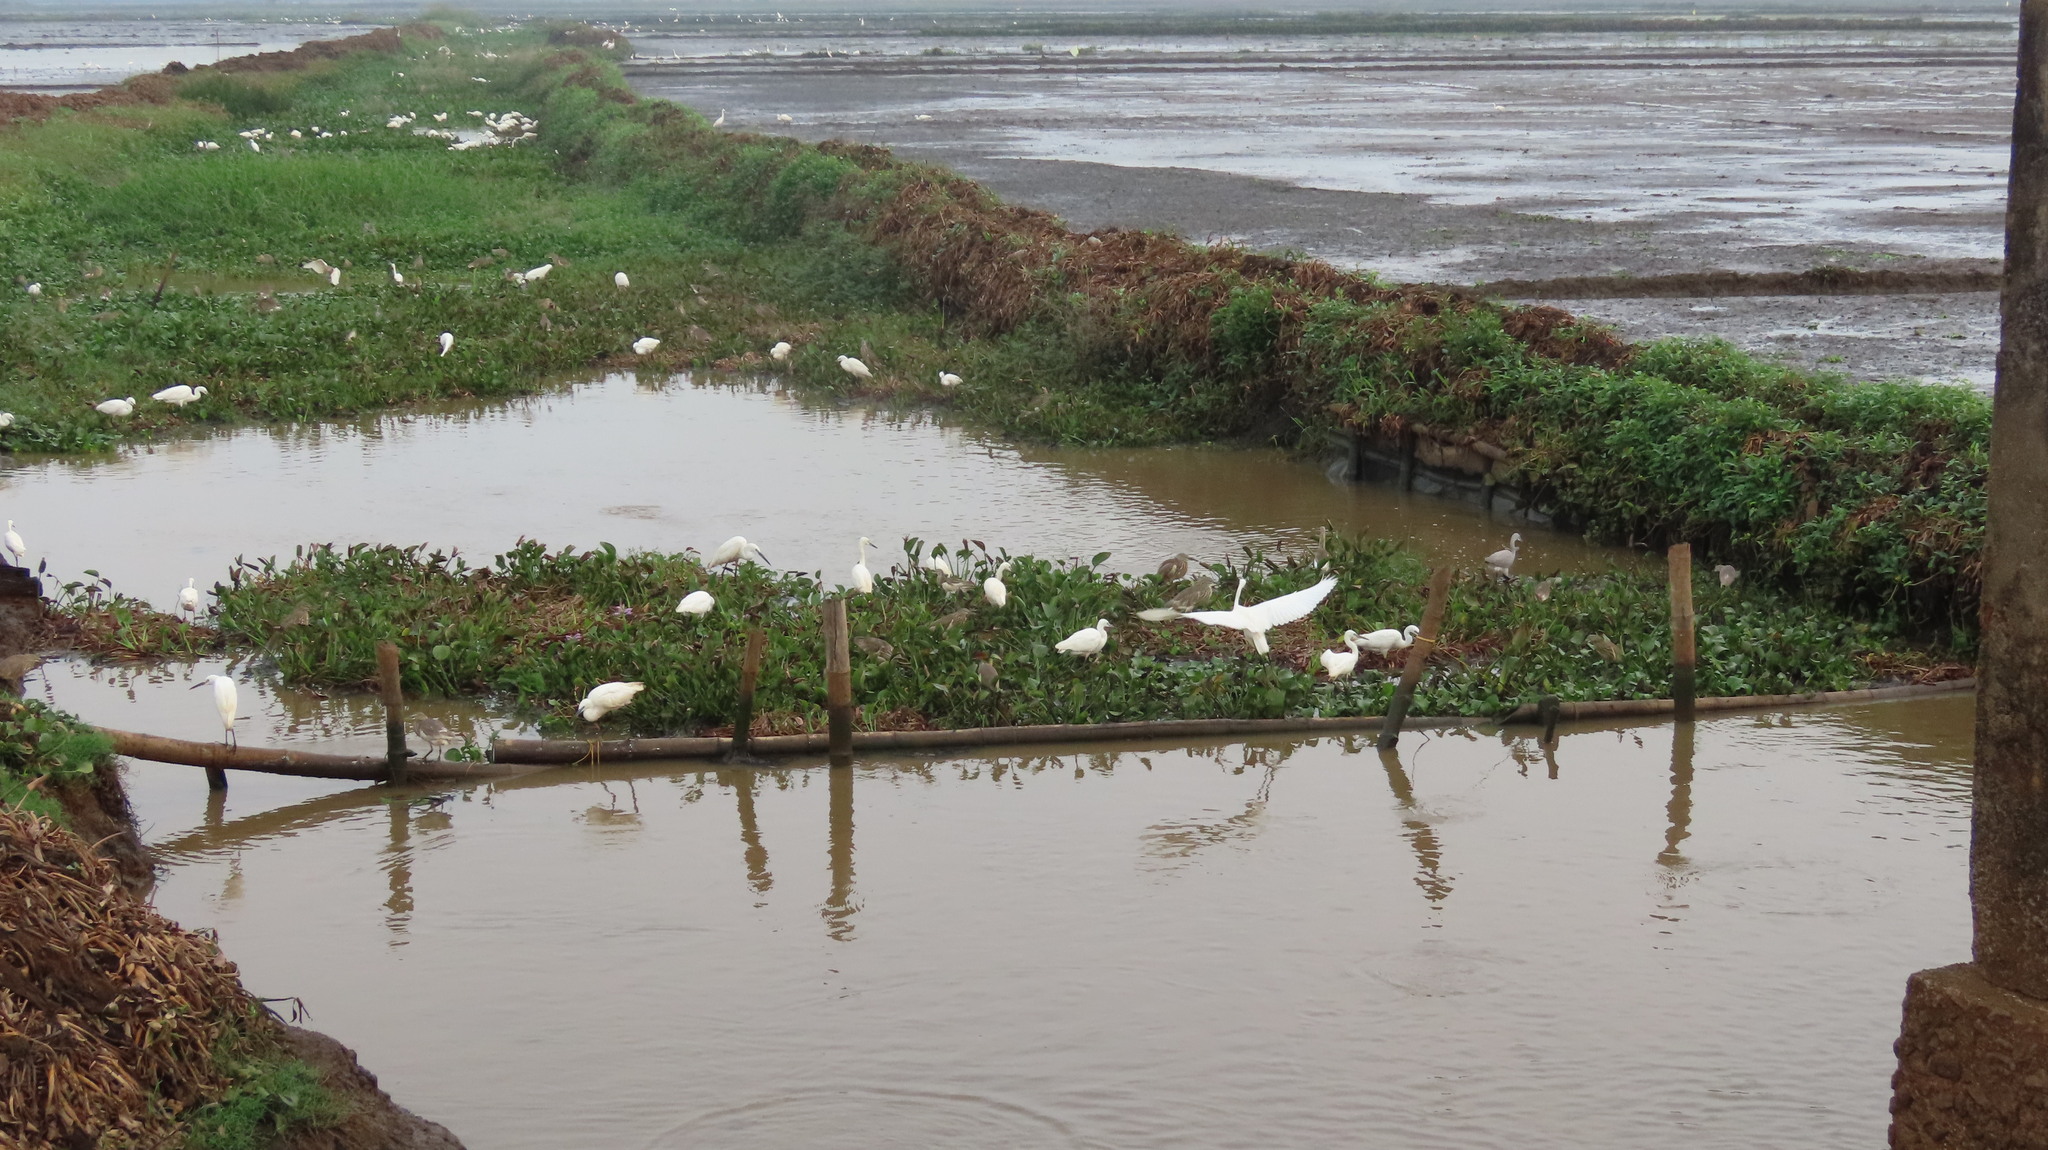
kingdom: Animalia
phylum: Chordata
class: Aves
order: Pelecaniformes
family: Ardeidae
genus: Egretta
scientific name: Egretta garzetta
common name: Little egret
